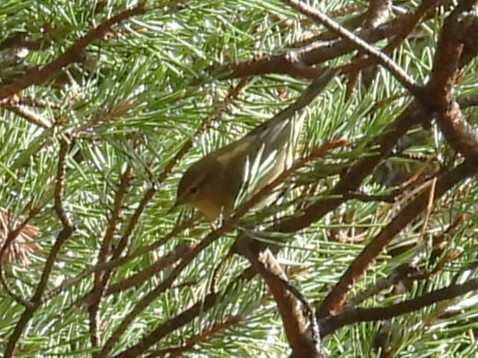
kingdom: Animalia
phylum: Chordata
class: Aves
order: Passeriformes
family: Phylloscopidae
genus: Phylloscopus
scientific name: Phylloscopus collybita
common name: Common chiffchaff
